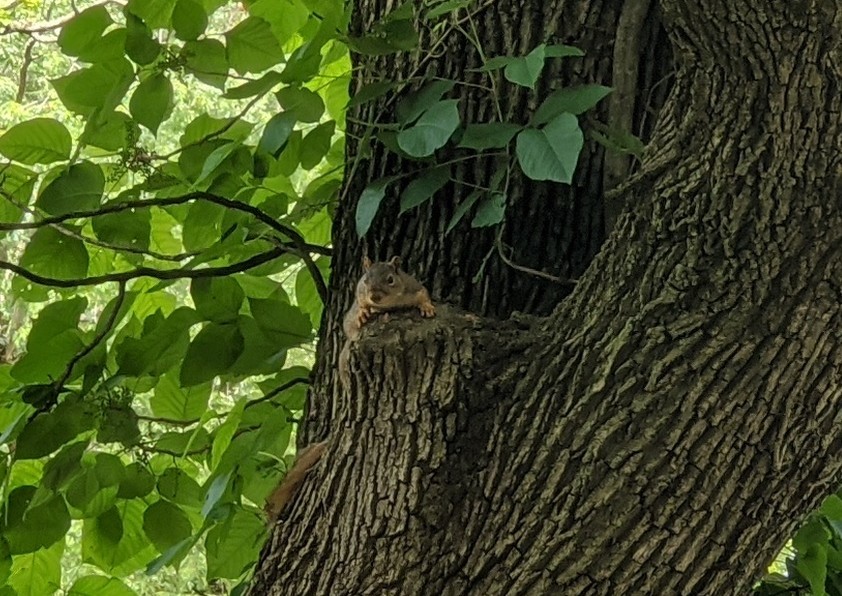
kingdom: Animalia
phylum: Chordata
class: Mammalia
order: Rodentia
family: Sciuridae
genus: Sciurus
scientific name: Sciurus niger
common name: Fox squirrel
